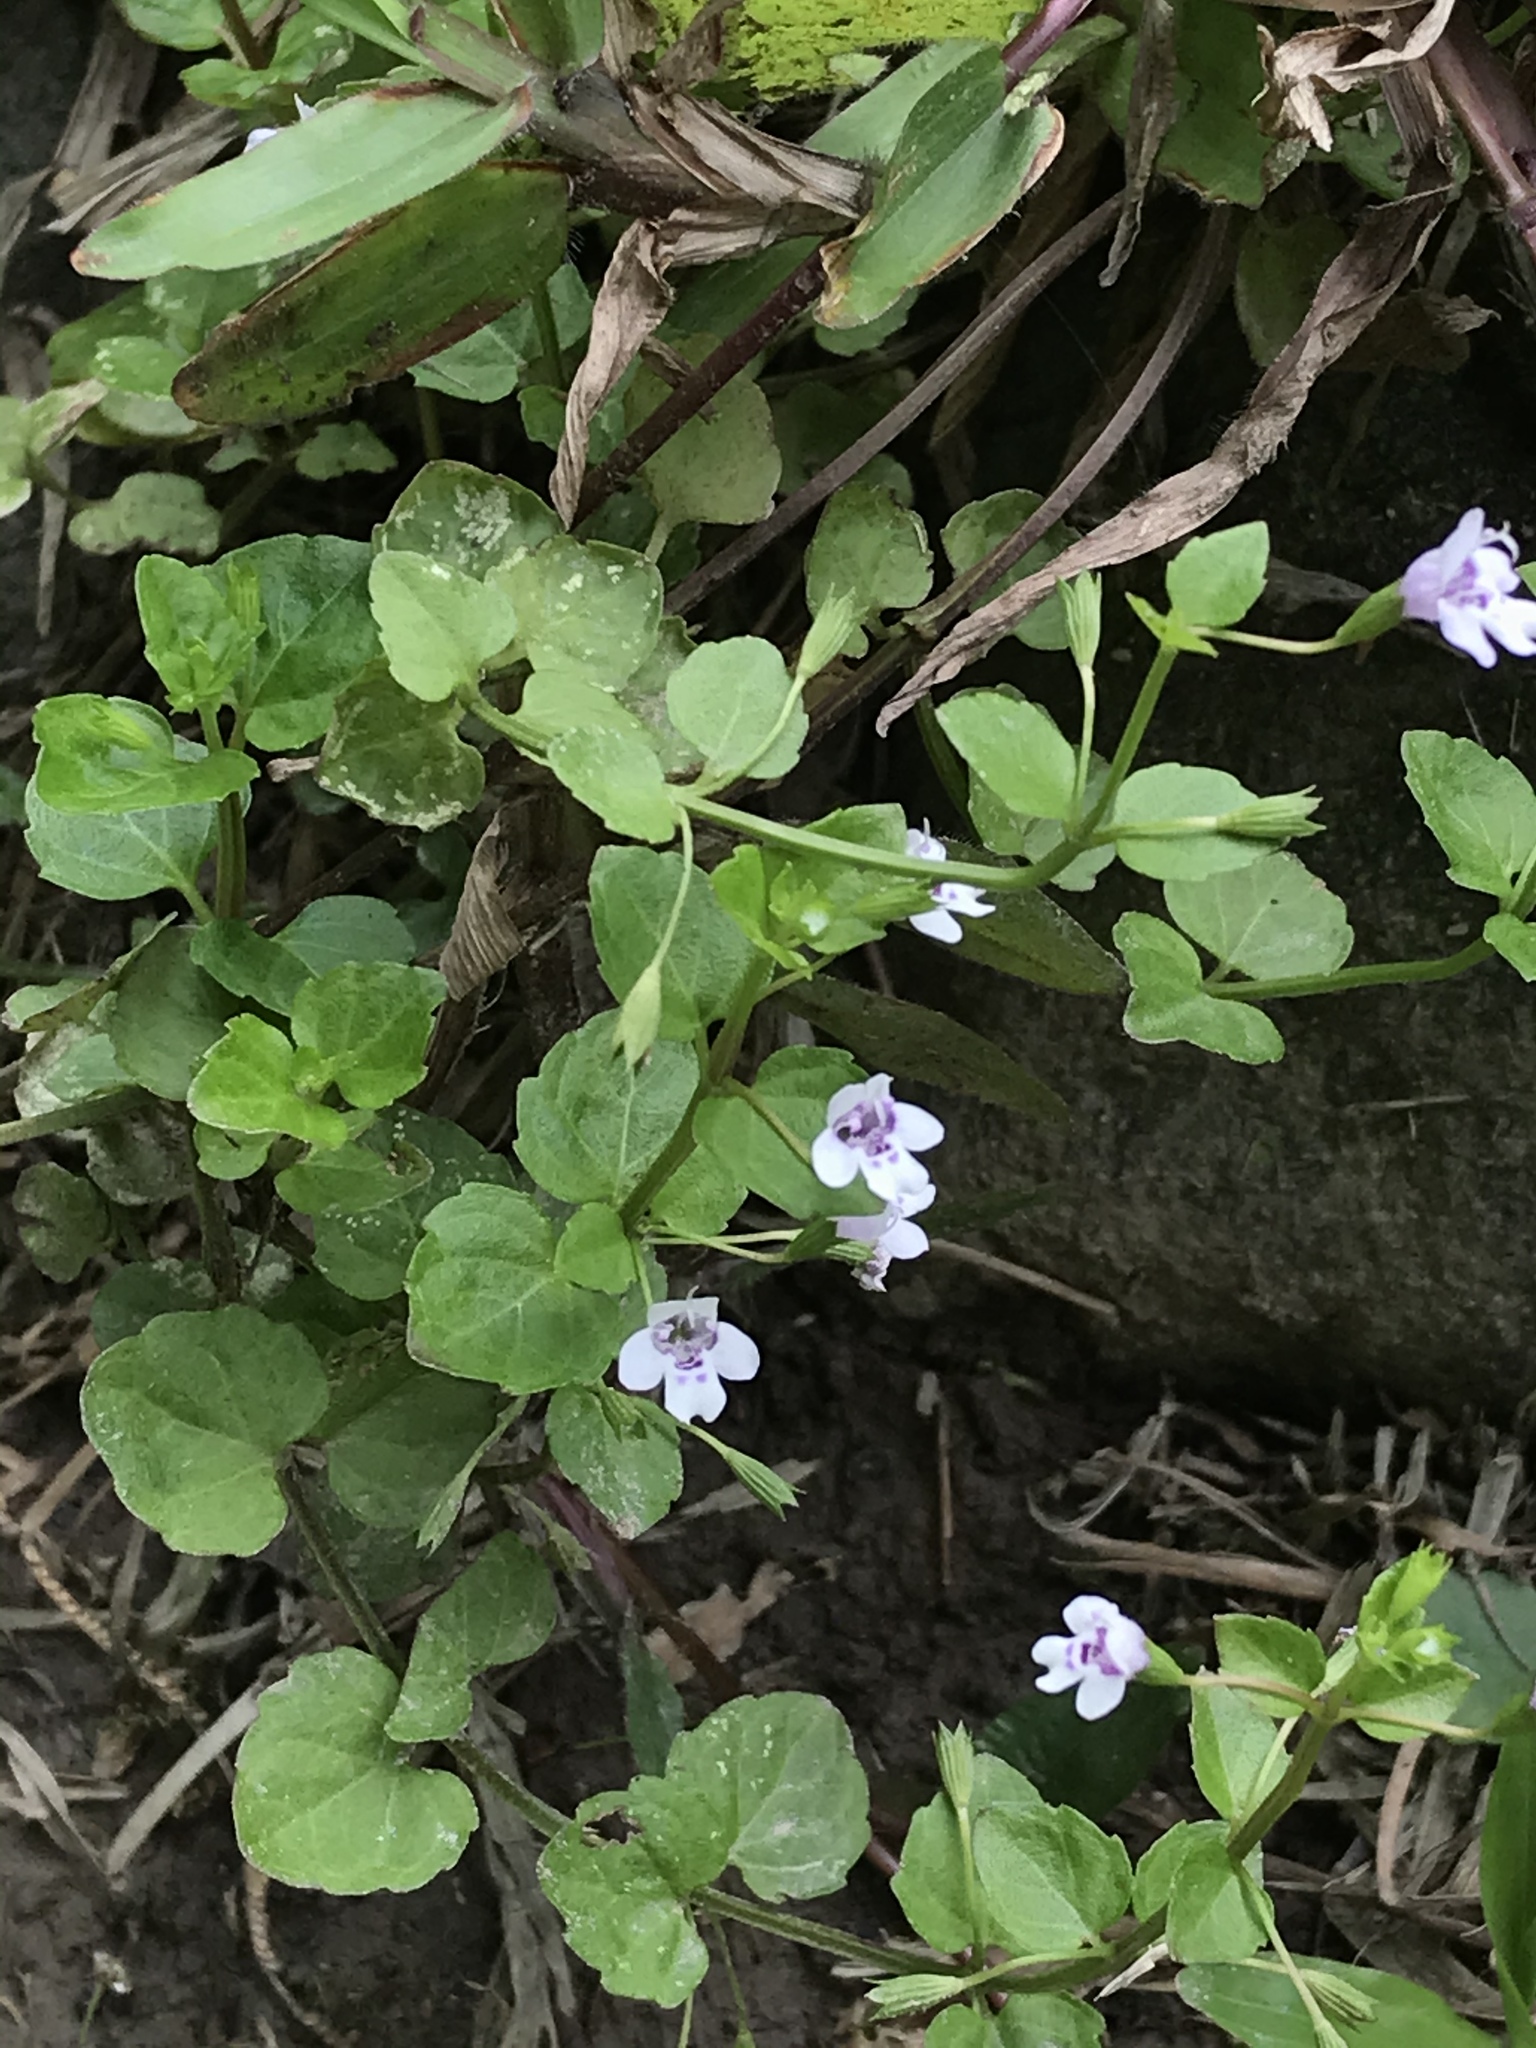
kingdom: Plantae
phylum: Tracheophyta
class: Magnoliopsida
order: Lamiales
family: Lamiaceae
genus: Clinopodium
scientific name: Clinopodium brownei
